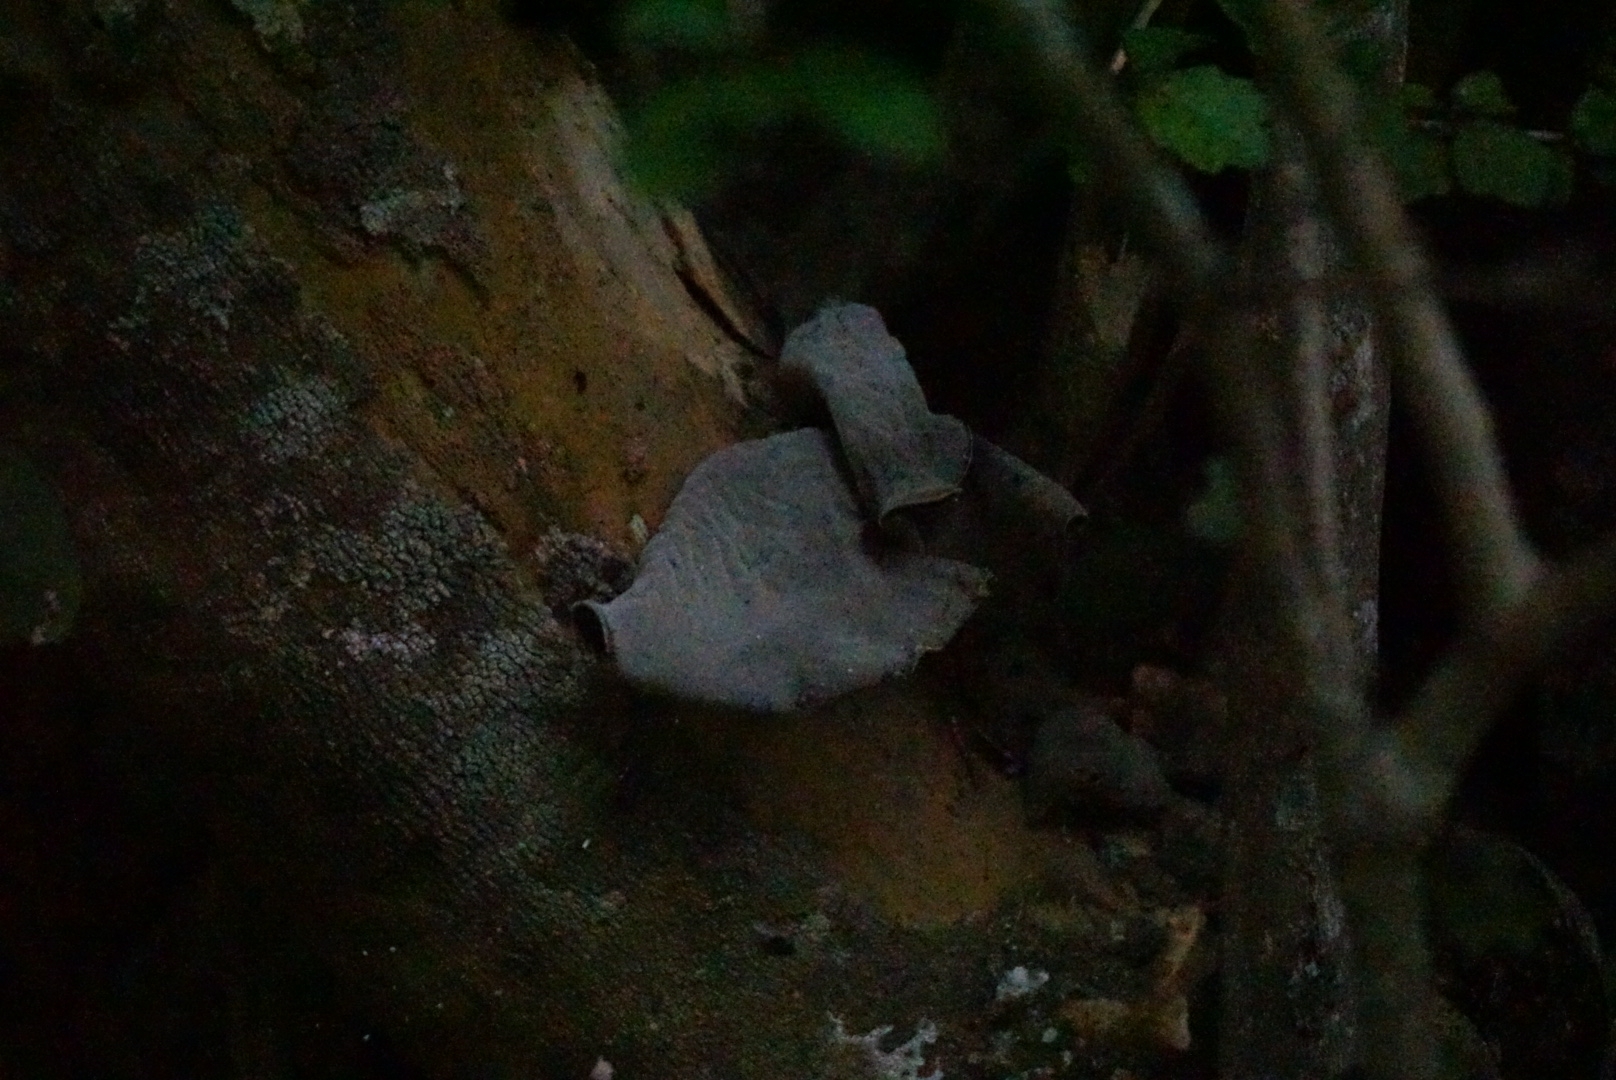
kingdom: Fungi
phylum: Basidiomycota
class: Agaricomycetes
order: Auriculariales
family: Auriculariaceae
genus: Auricularia
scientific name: Auricularia cornea
